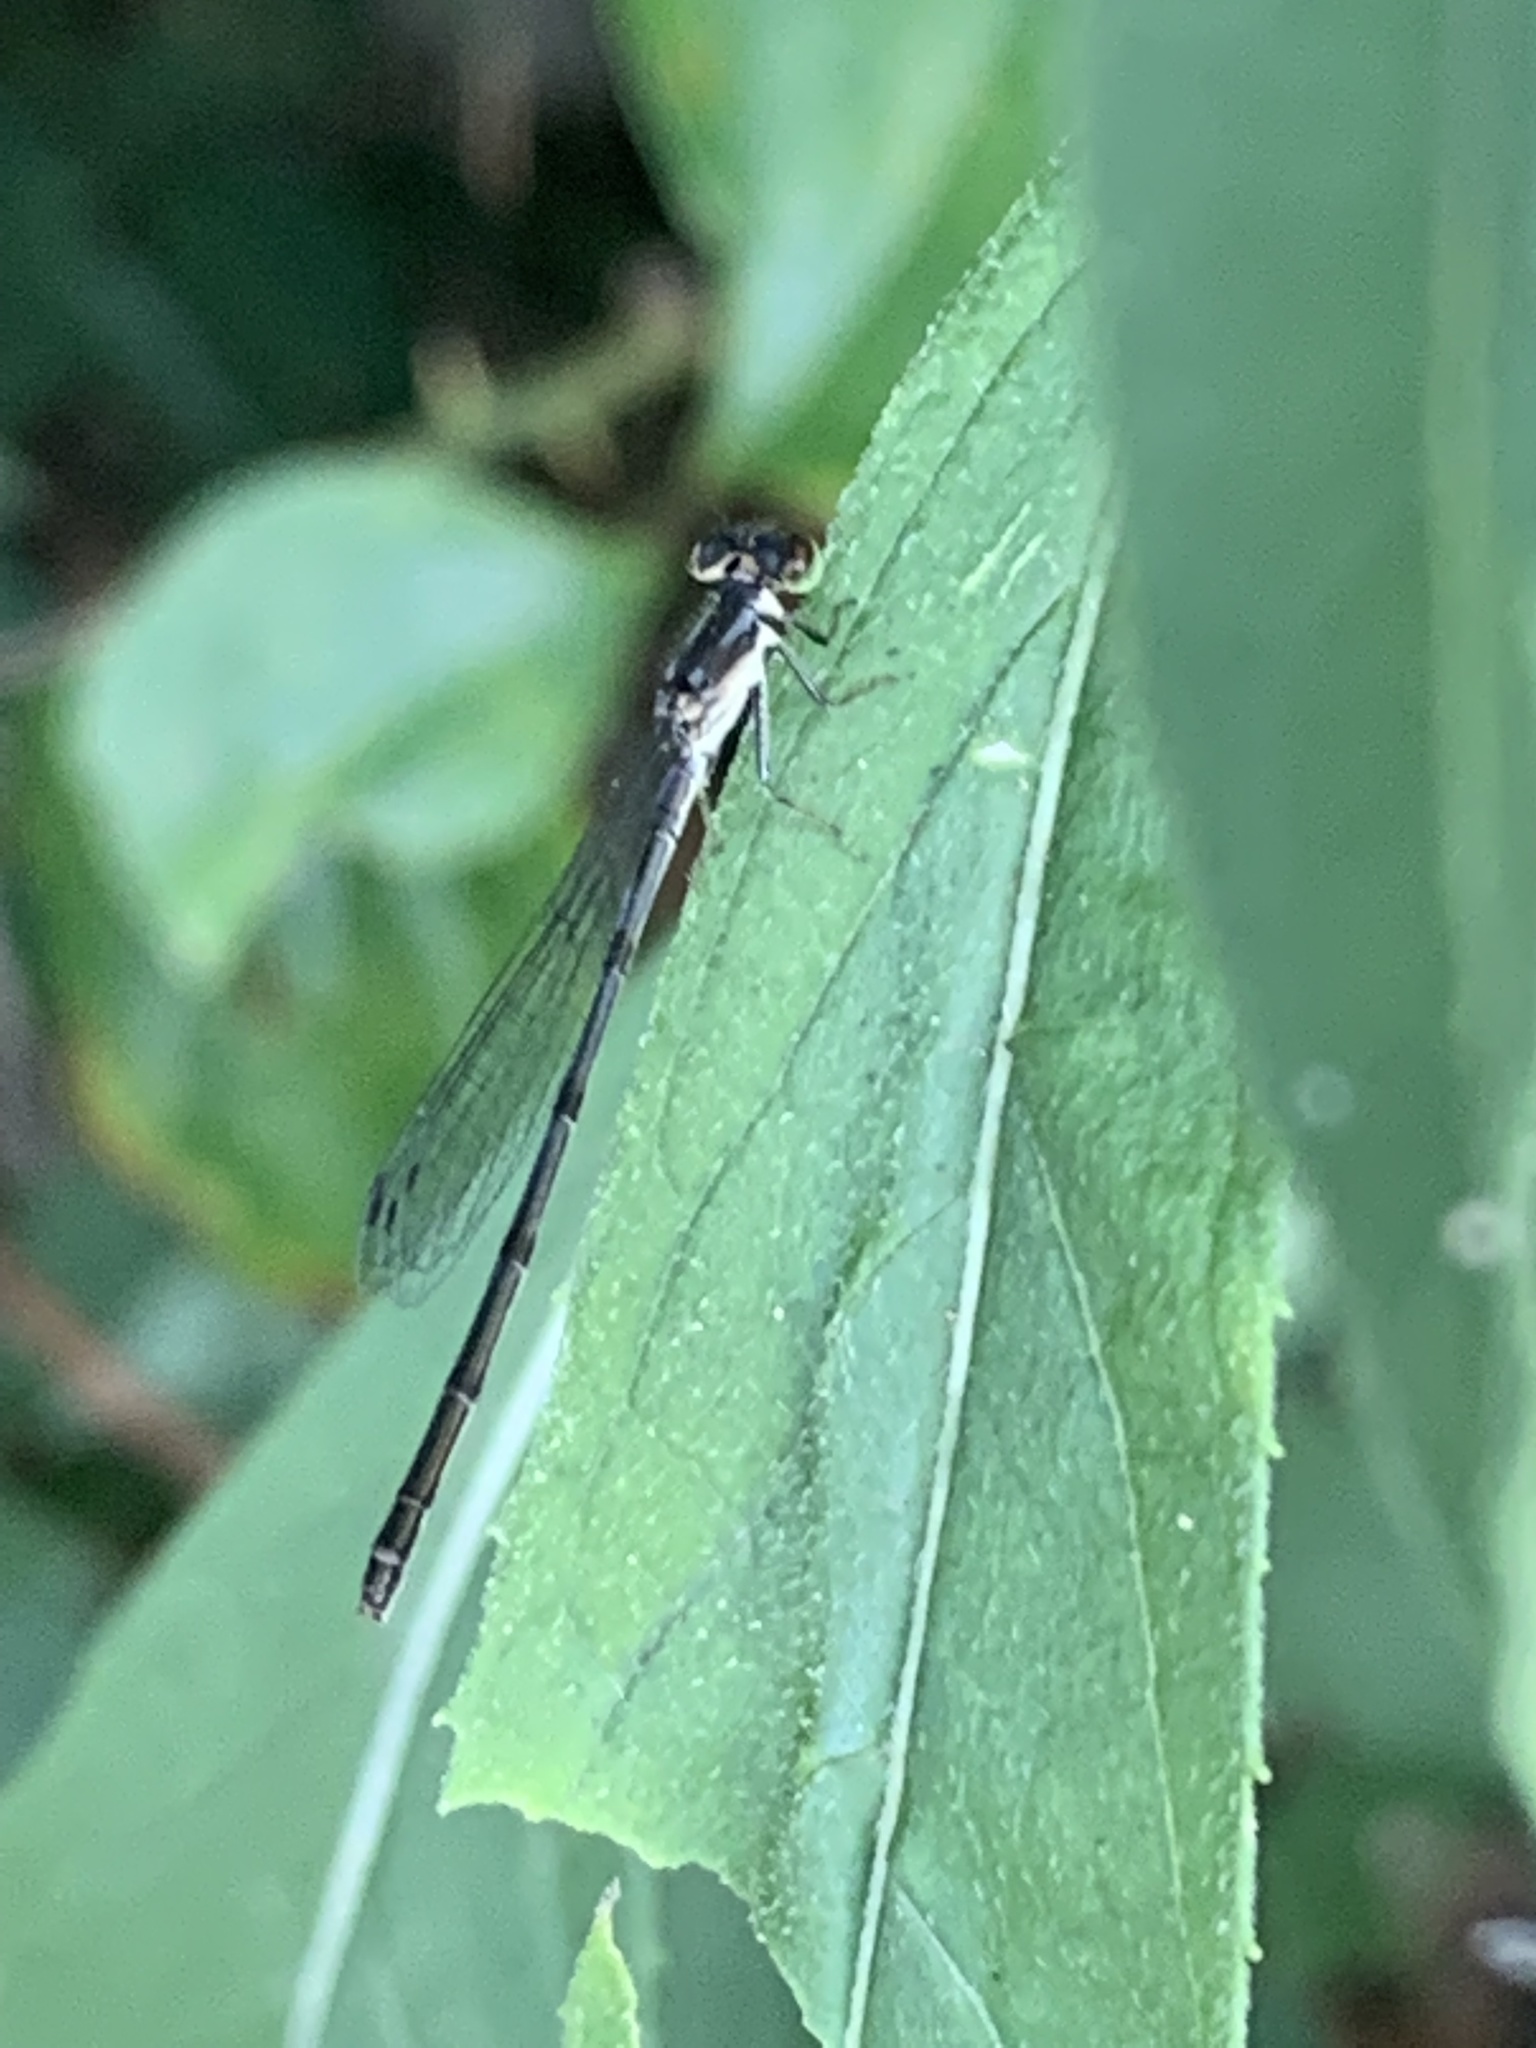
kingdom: Animalia
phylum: Arthropoda
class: Insecta
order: Odonata
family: Coenagrionidae
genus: Ischnura
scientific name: Ischnura posita
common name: Fragile forktail
